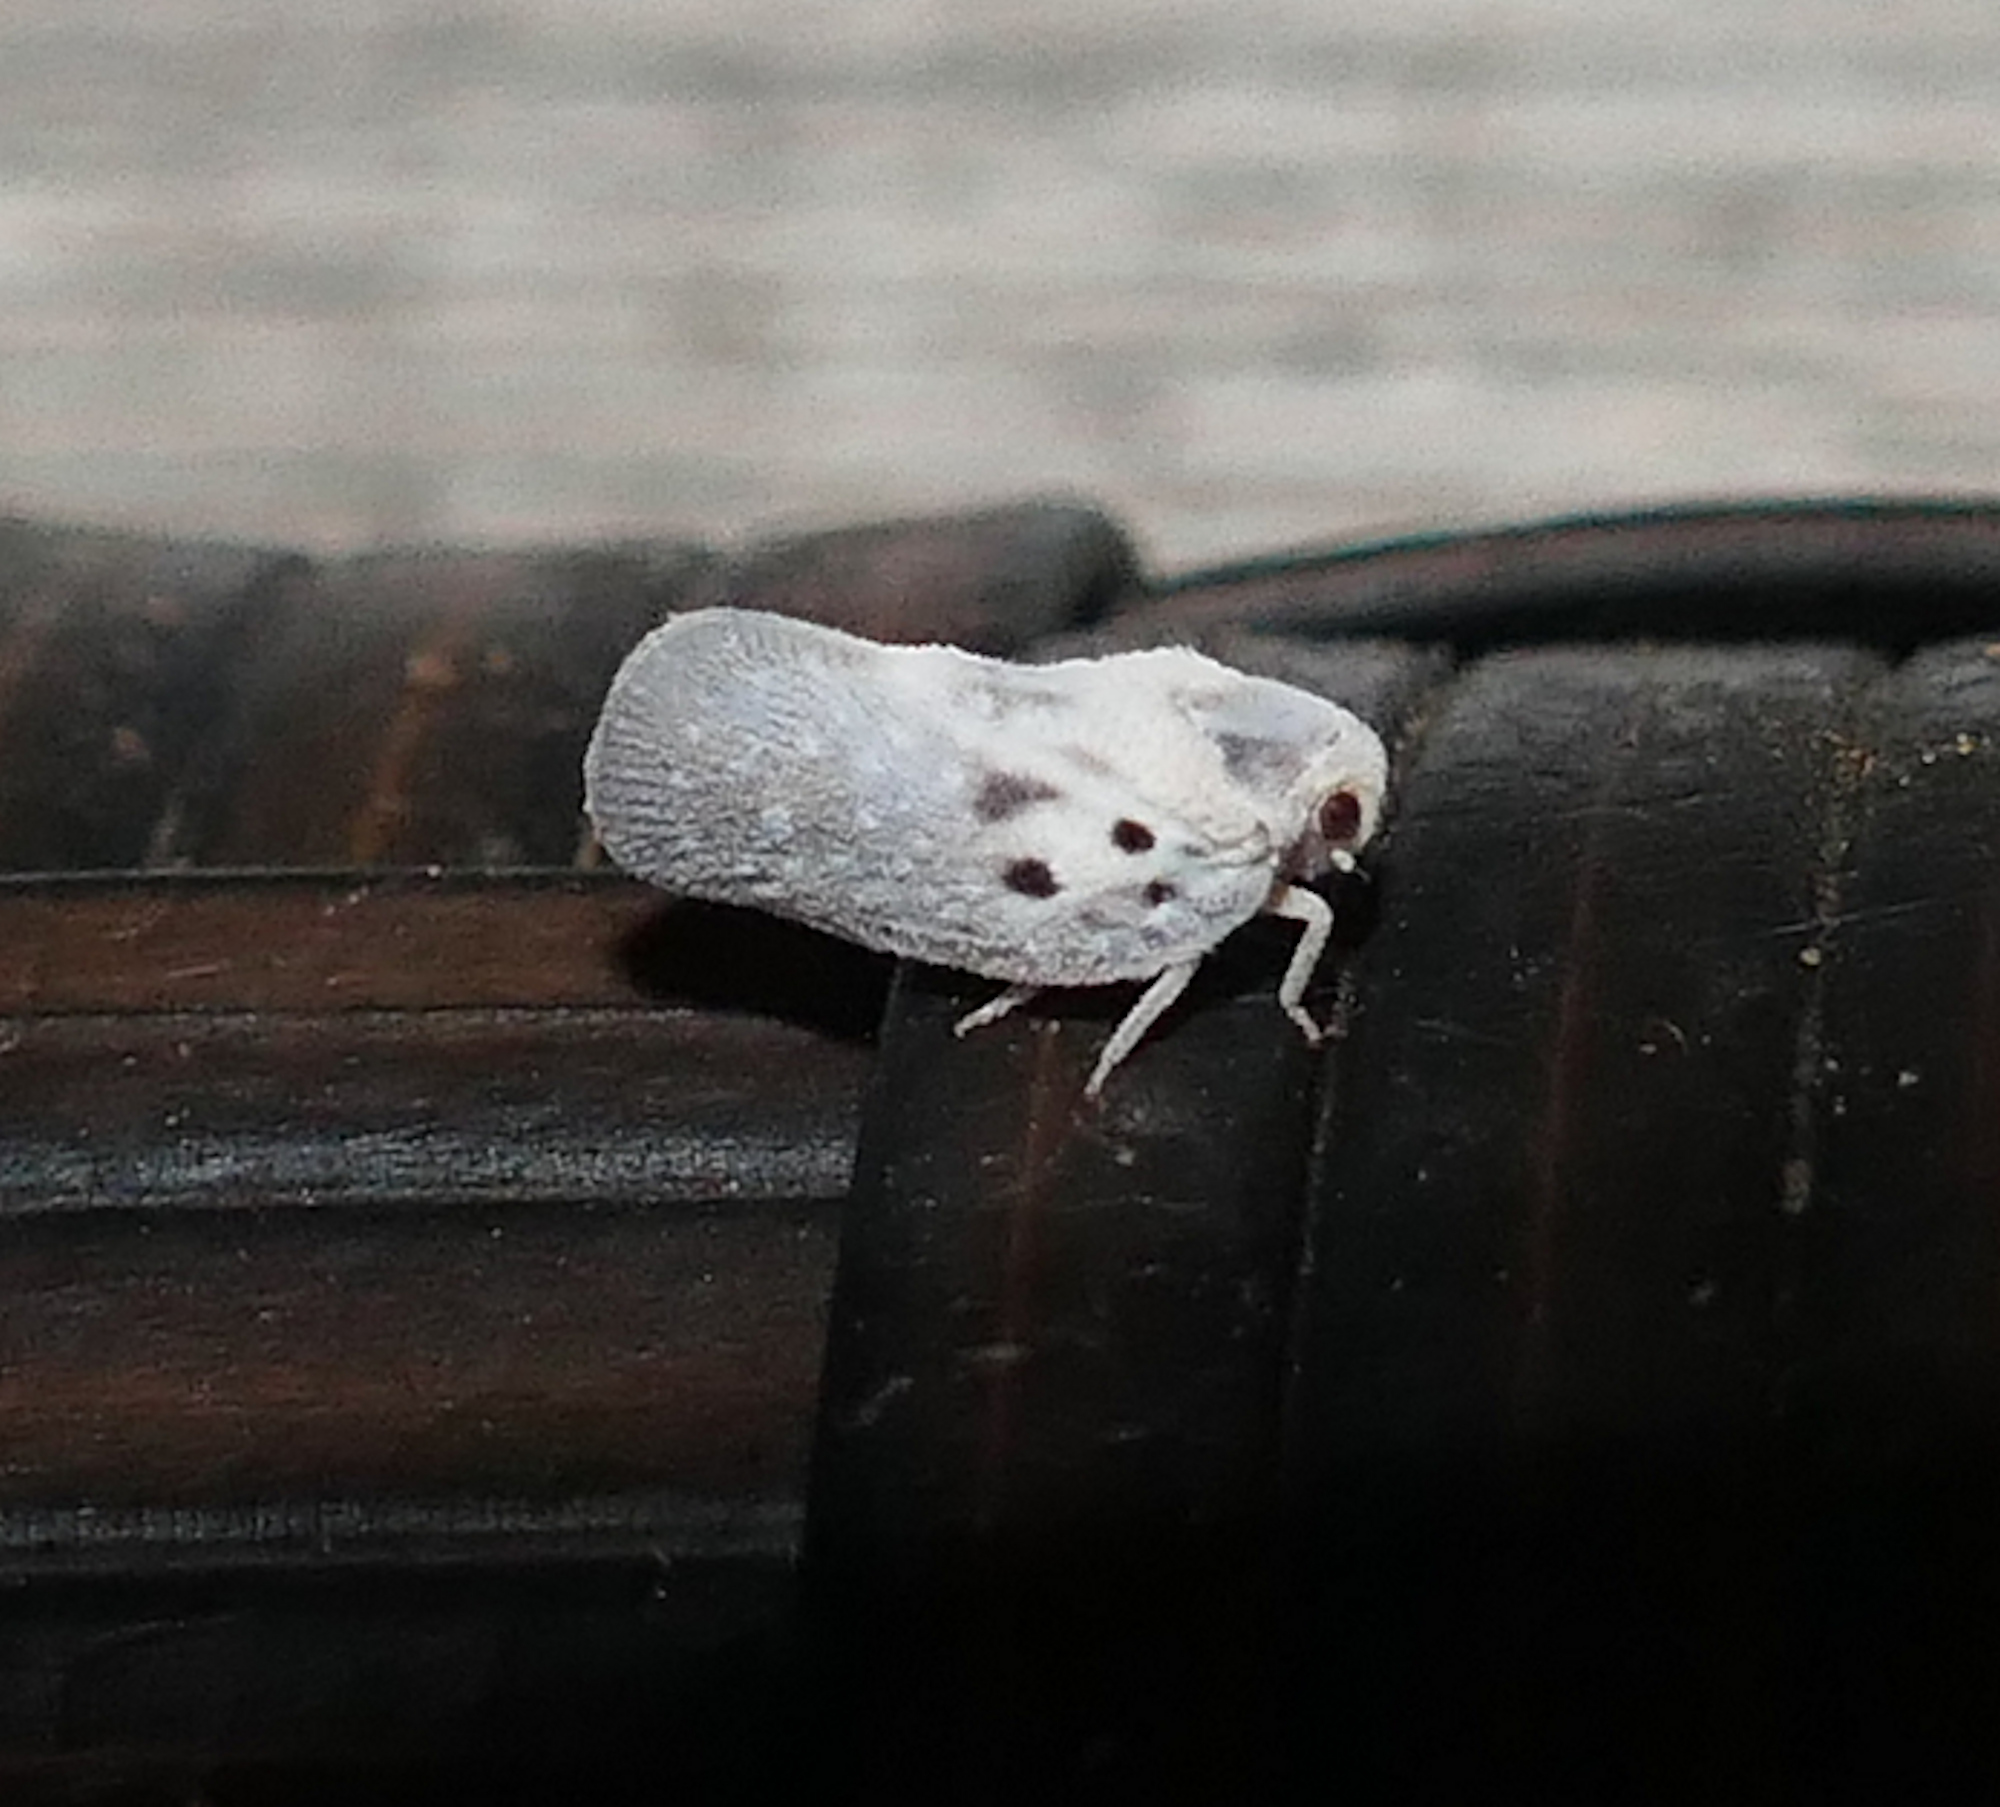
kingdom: Animalia
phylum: Arthropoda
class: Insecta
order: Hemiptera
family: Flatidae
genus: Metcalfa
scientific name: Metcalfa pruinosa
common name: Citrus flatid planthopper
